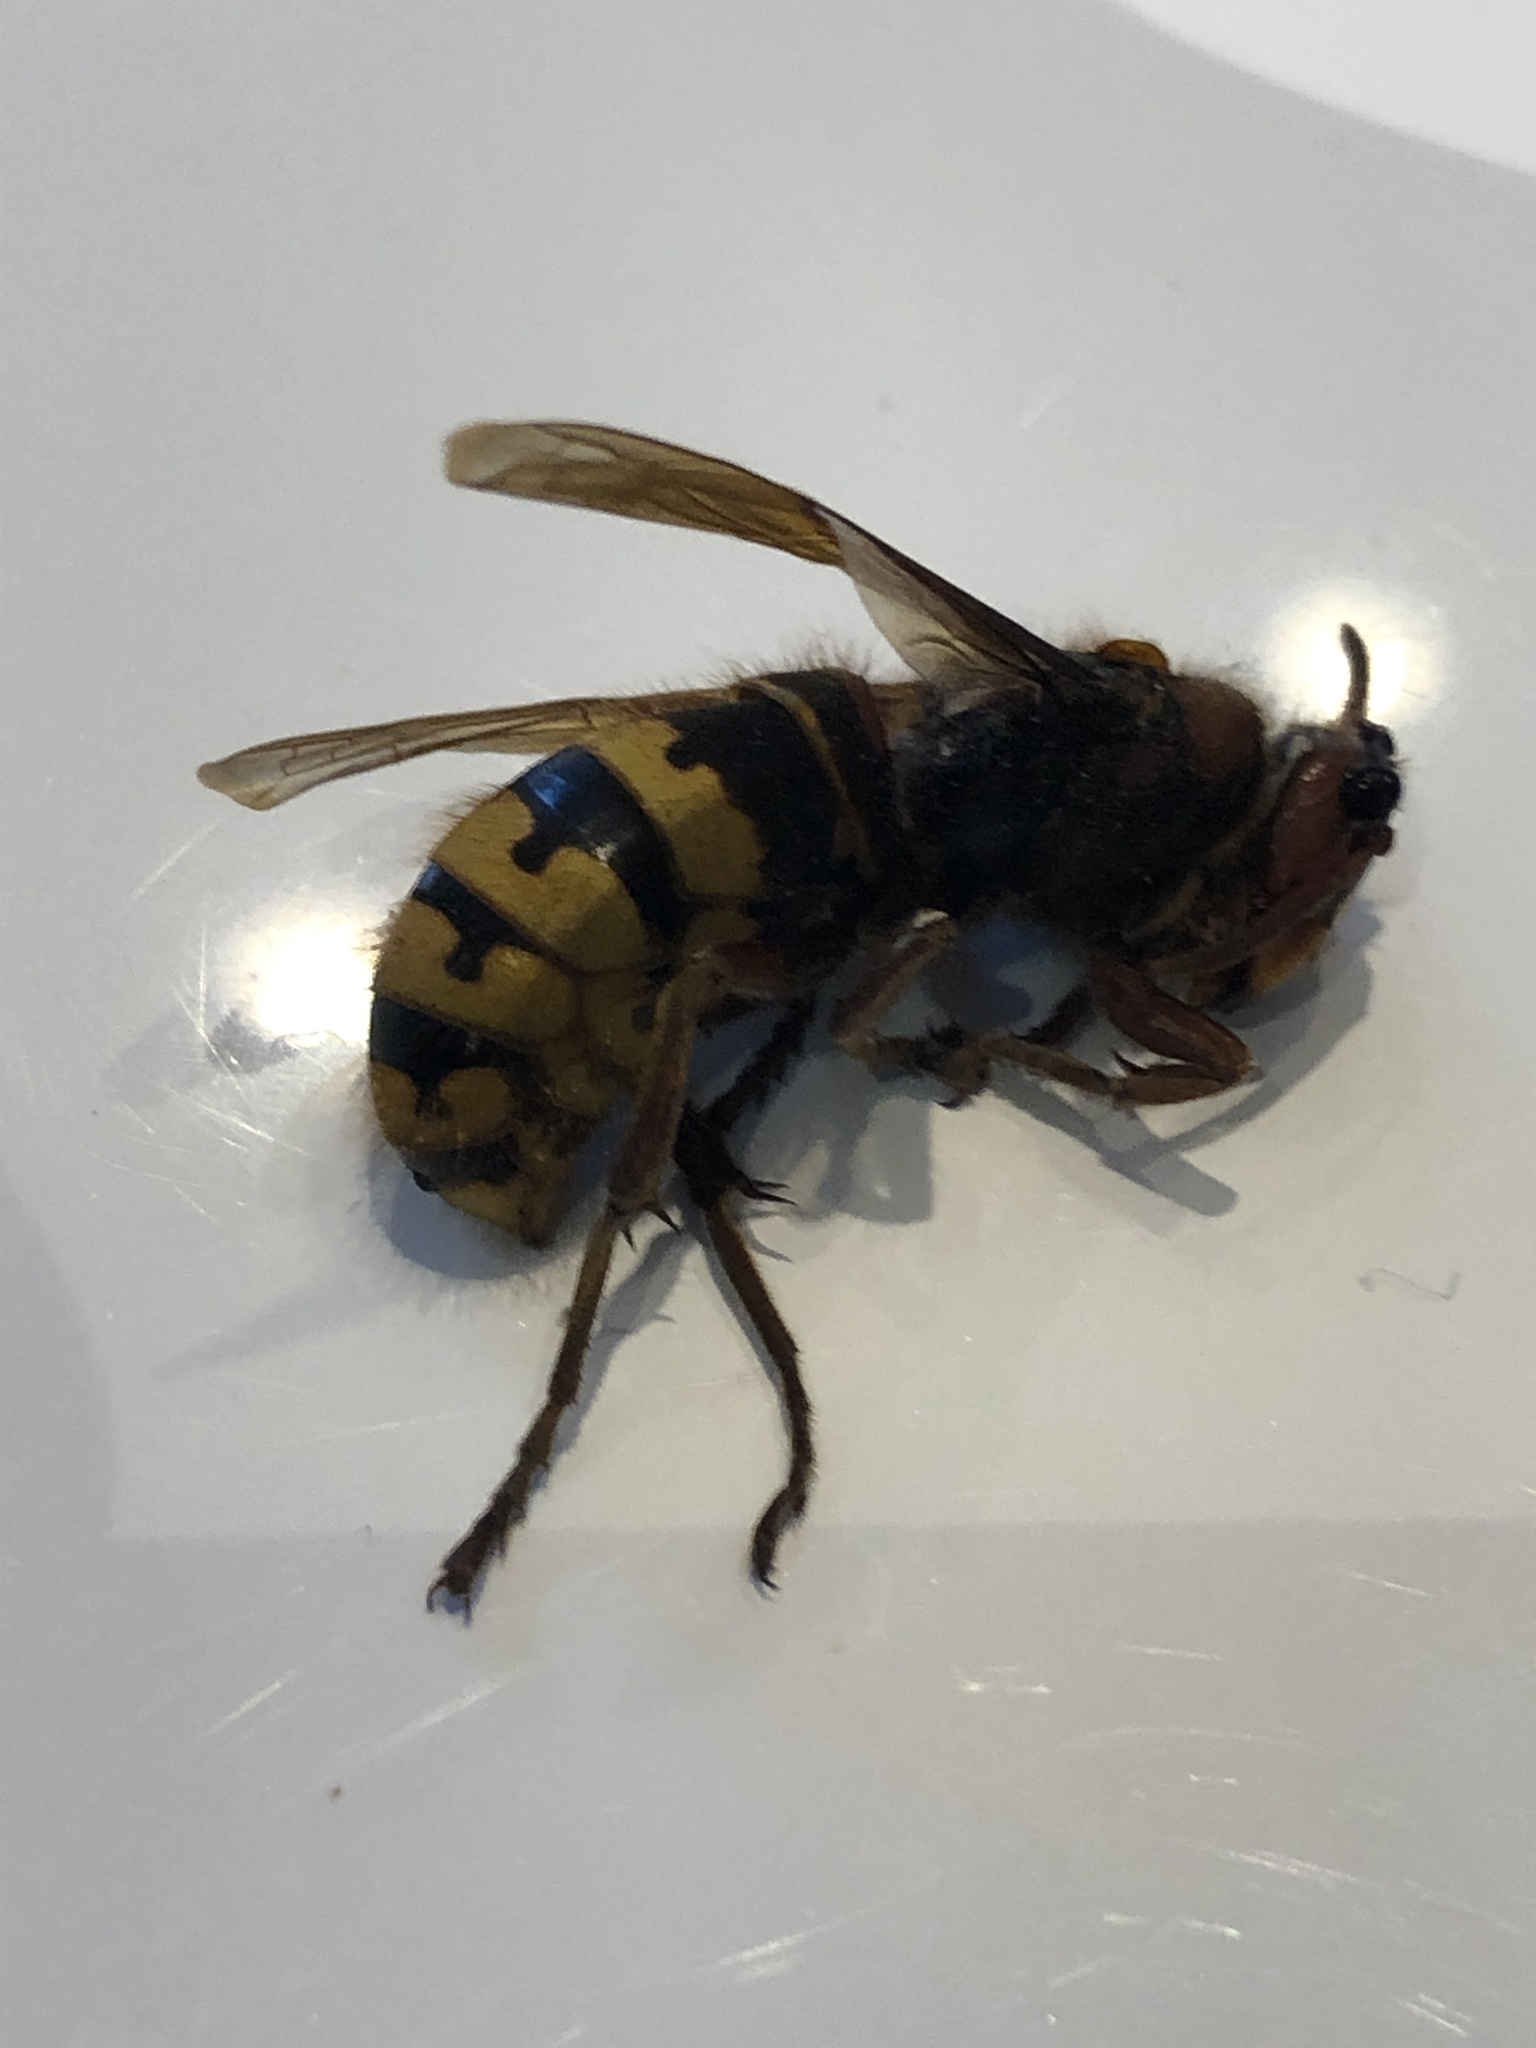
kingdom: Animalia
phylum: Arthropoda
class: Insecta
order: Hymenoptera
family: Vespidae
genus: Vespa
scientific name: Vespa crabro
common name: Hornet
